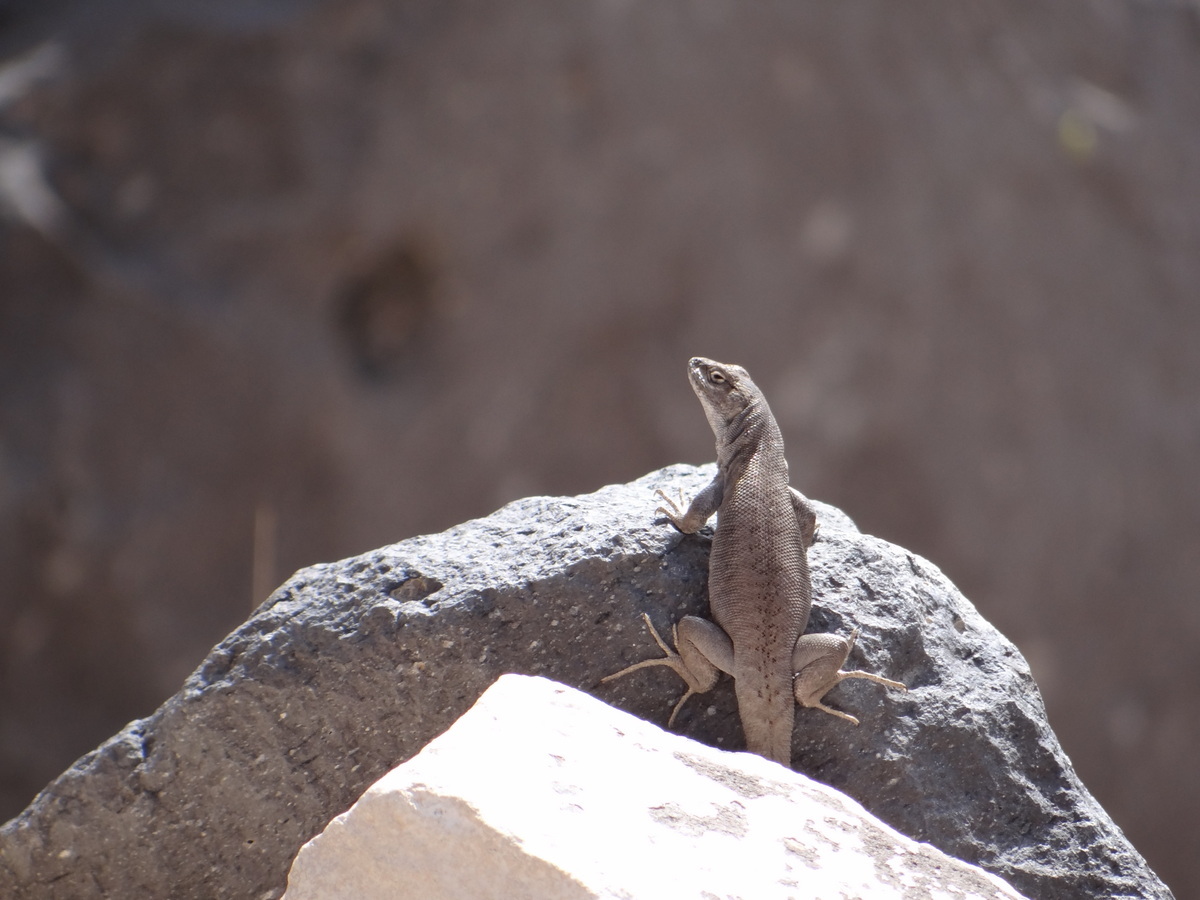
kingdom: Animalia
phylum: Chordata
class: Squamata
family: Liolaemidae
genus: Liolaemus
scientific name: Liolaemus smaug
